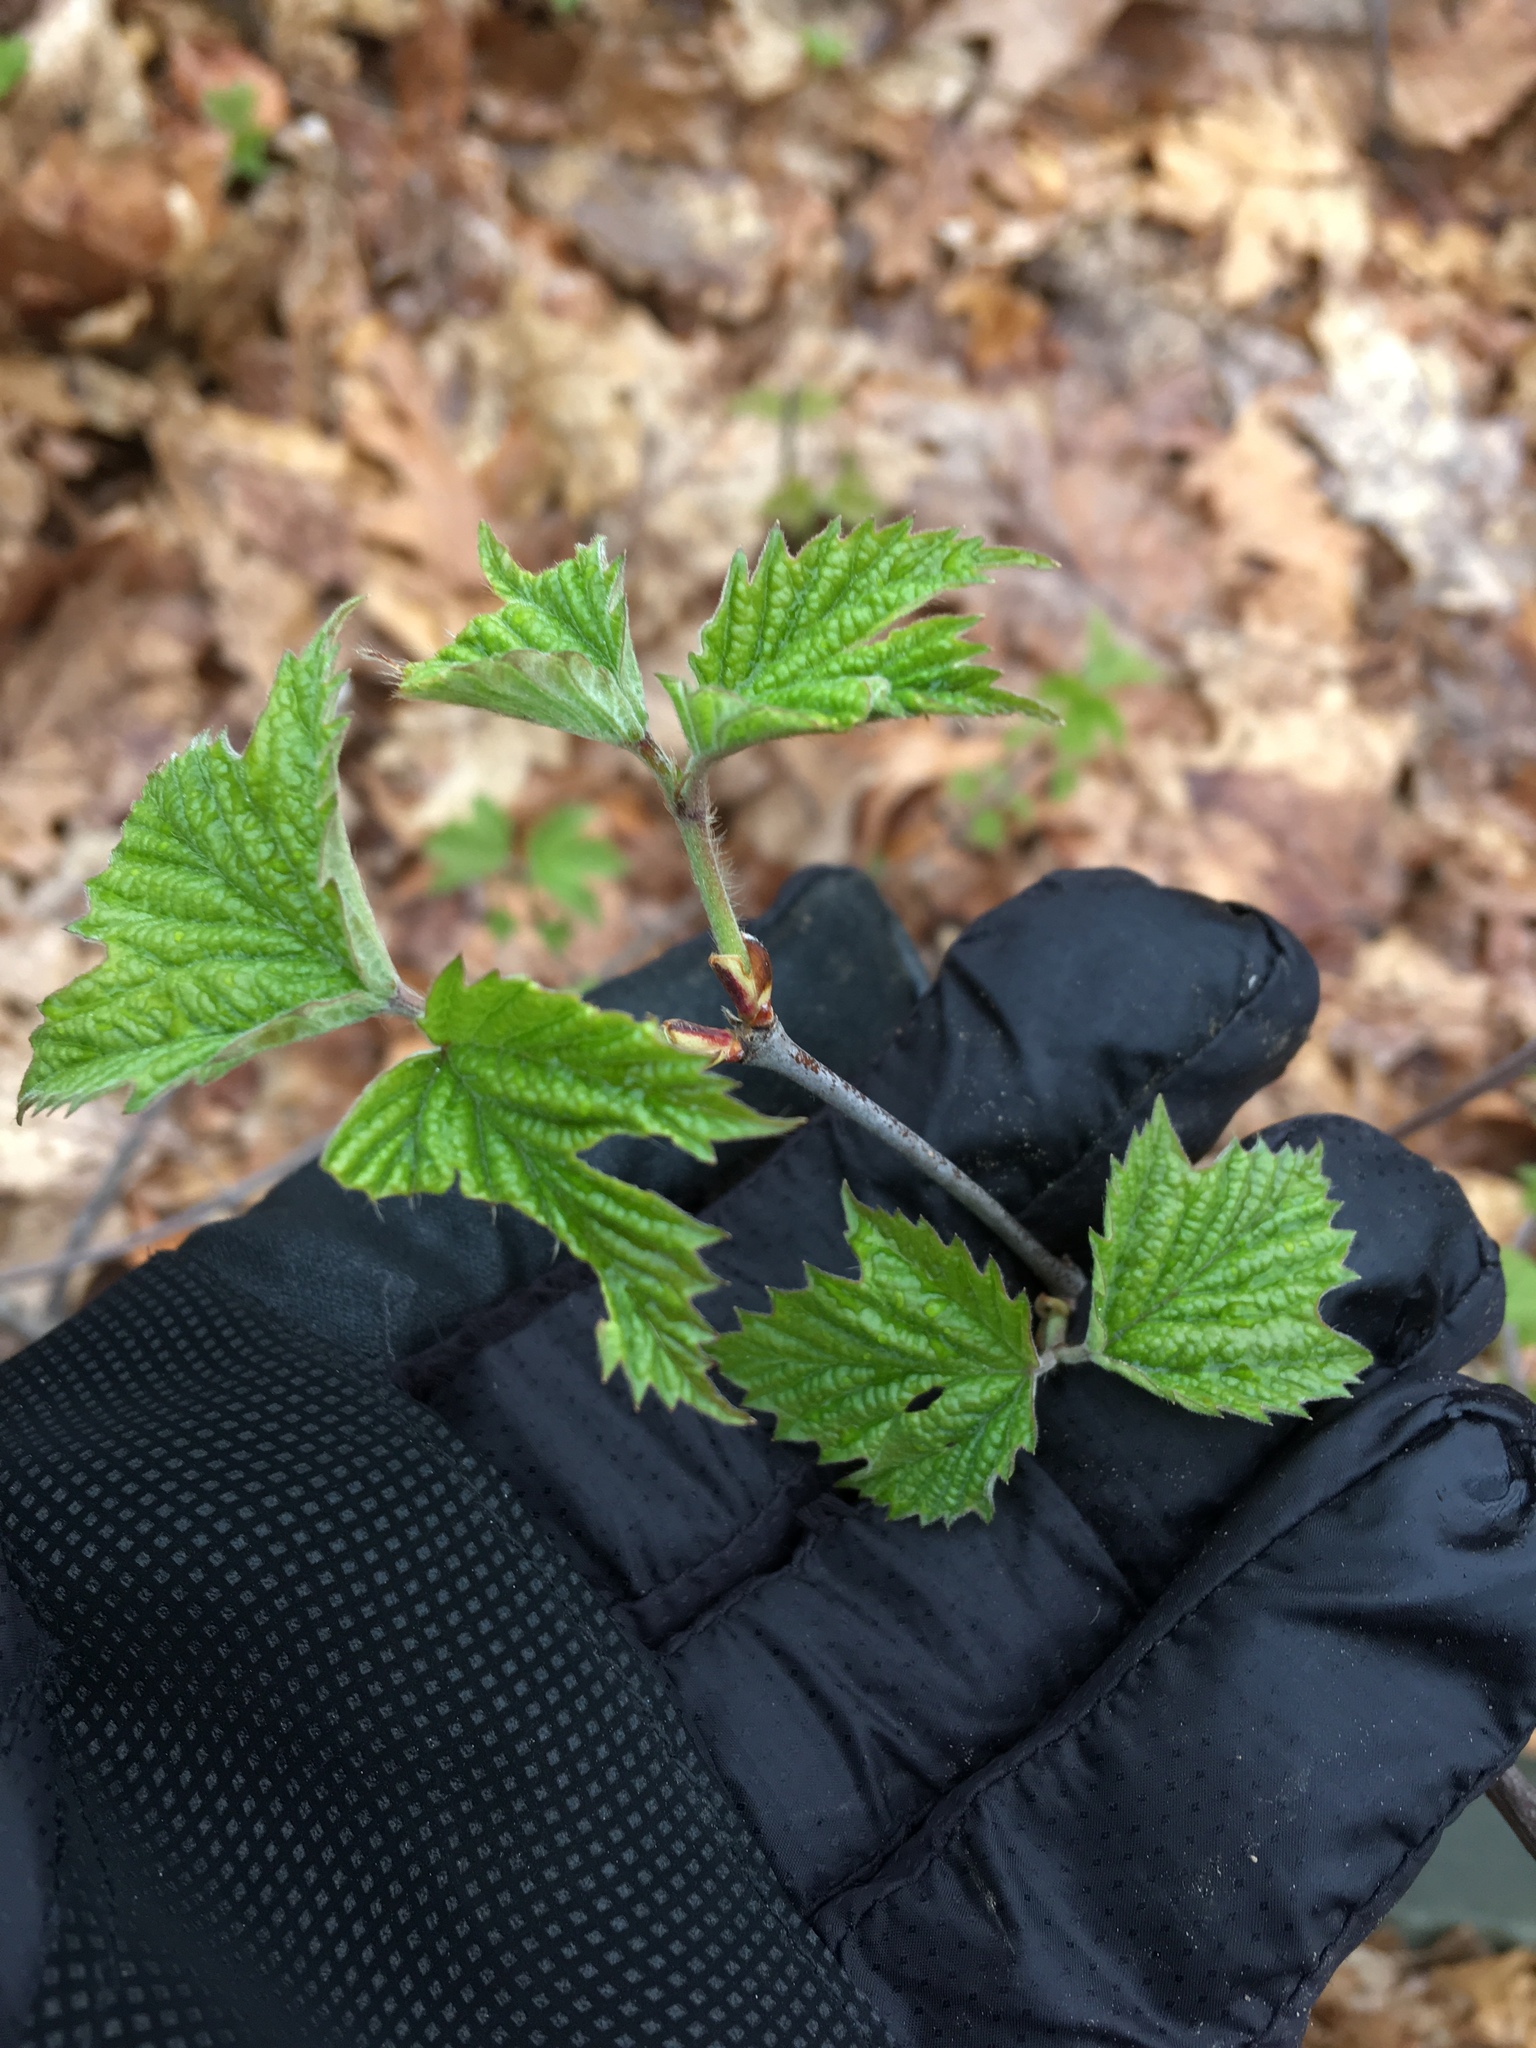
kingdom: Plantae
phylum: Tracheophyta
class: Magnoliopsida
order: Dipsacales
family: Viburnaceae
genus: Viburnum
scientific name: Viburnum acerifolium
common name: Dockmackie
